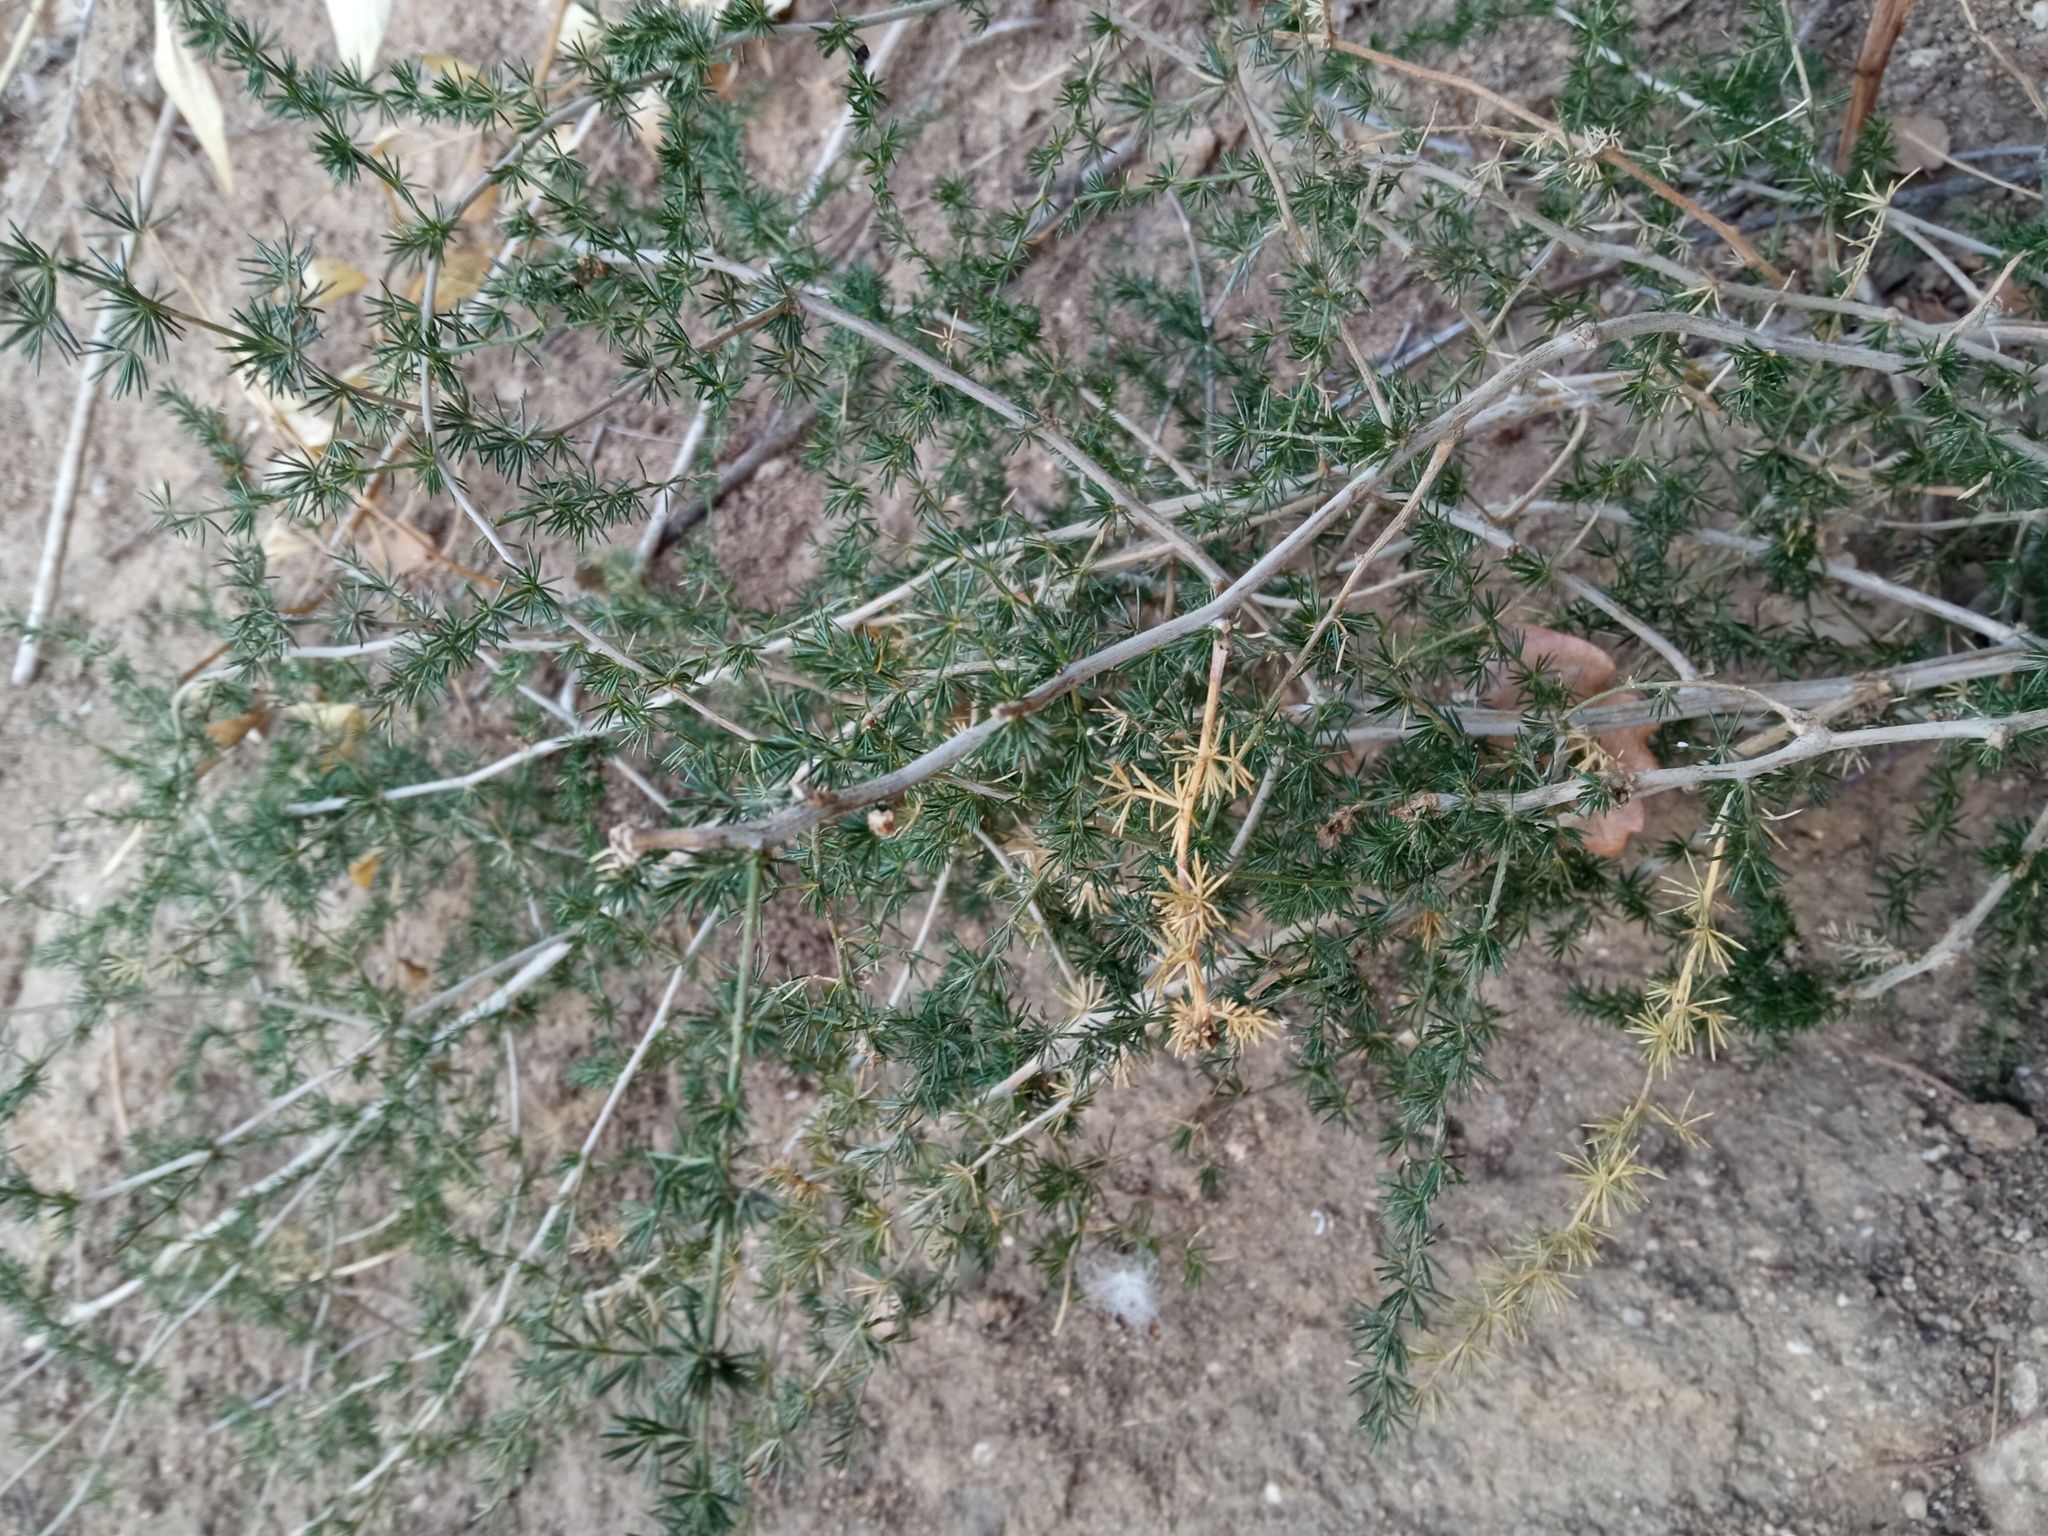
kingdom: Plantae
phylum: Tracheophyta
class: Liliopsida
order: Asparagales
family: Asparagaceae
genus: Asparagus
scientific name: Asparagus acutifolius
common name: Wild asparagus
